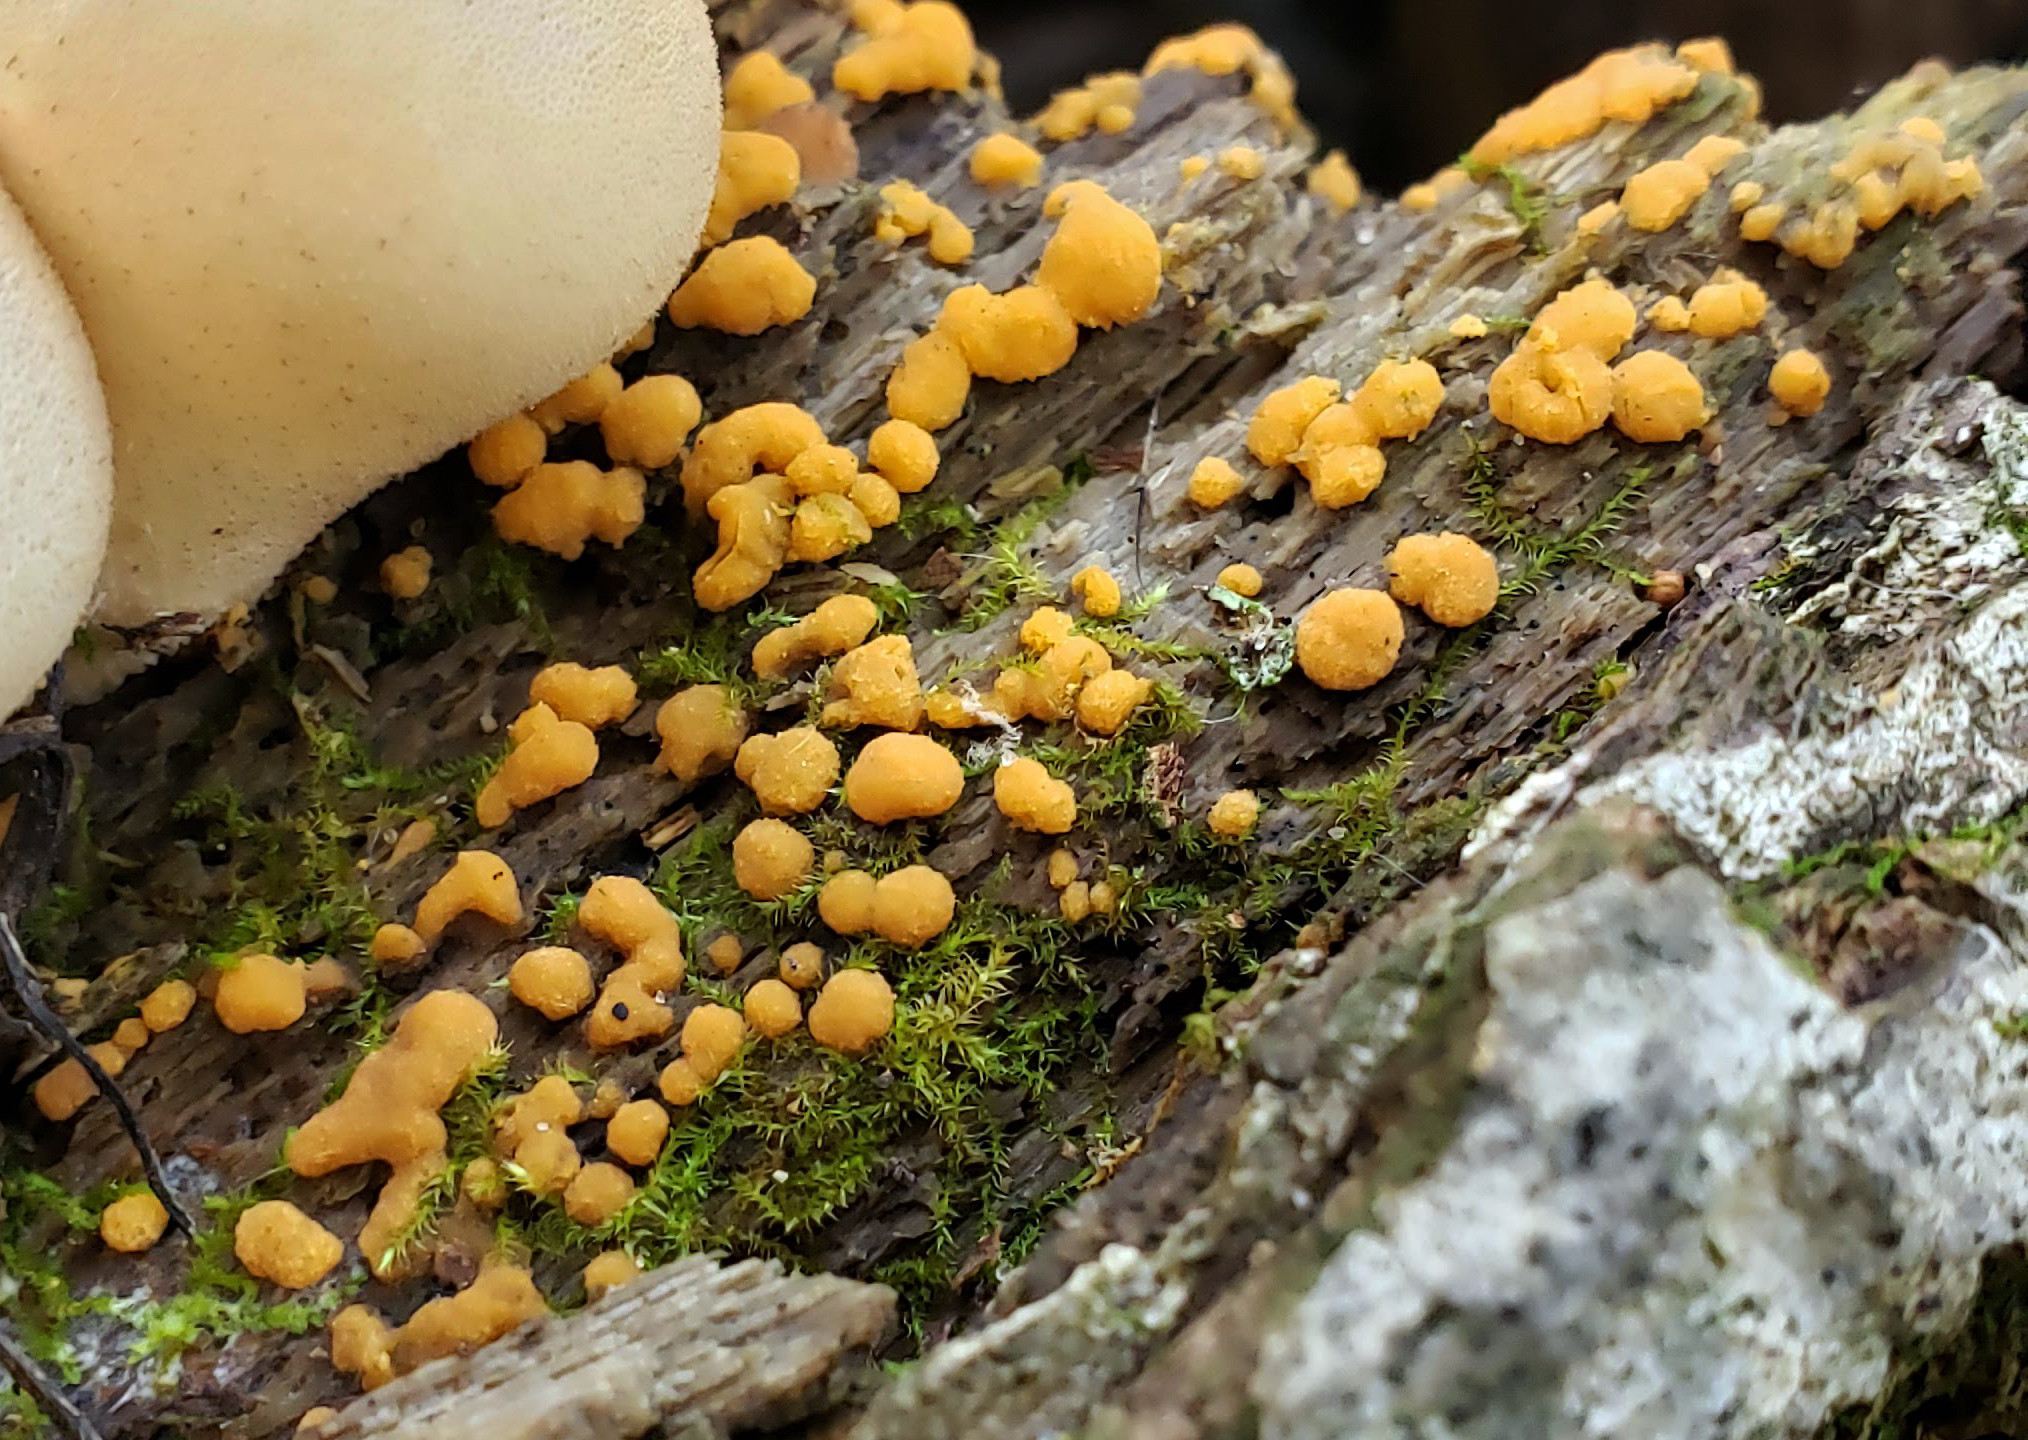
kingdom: Fungi
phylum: Ascomycota
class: Pezizomycetes
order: Pezizales
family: Pyronemataceae
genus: Sphaerosporium
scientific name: Sphaerosporium lignatile
